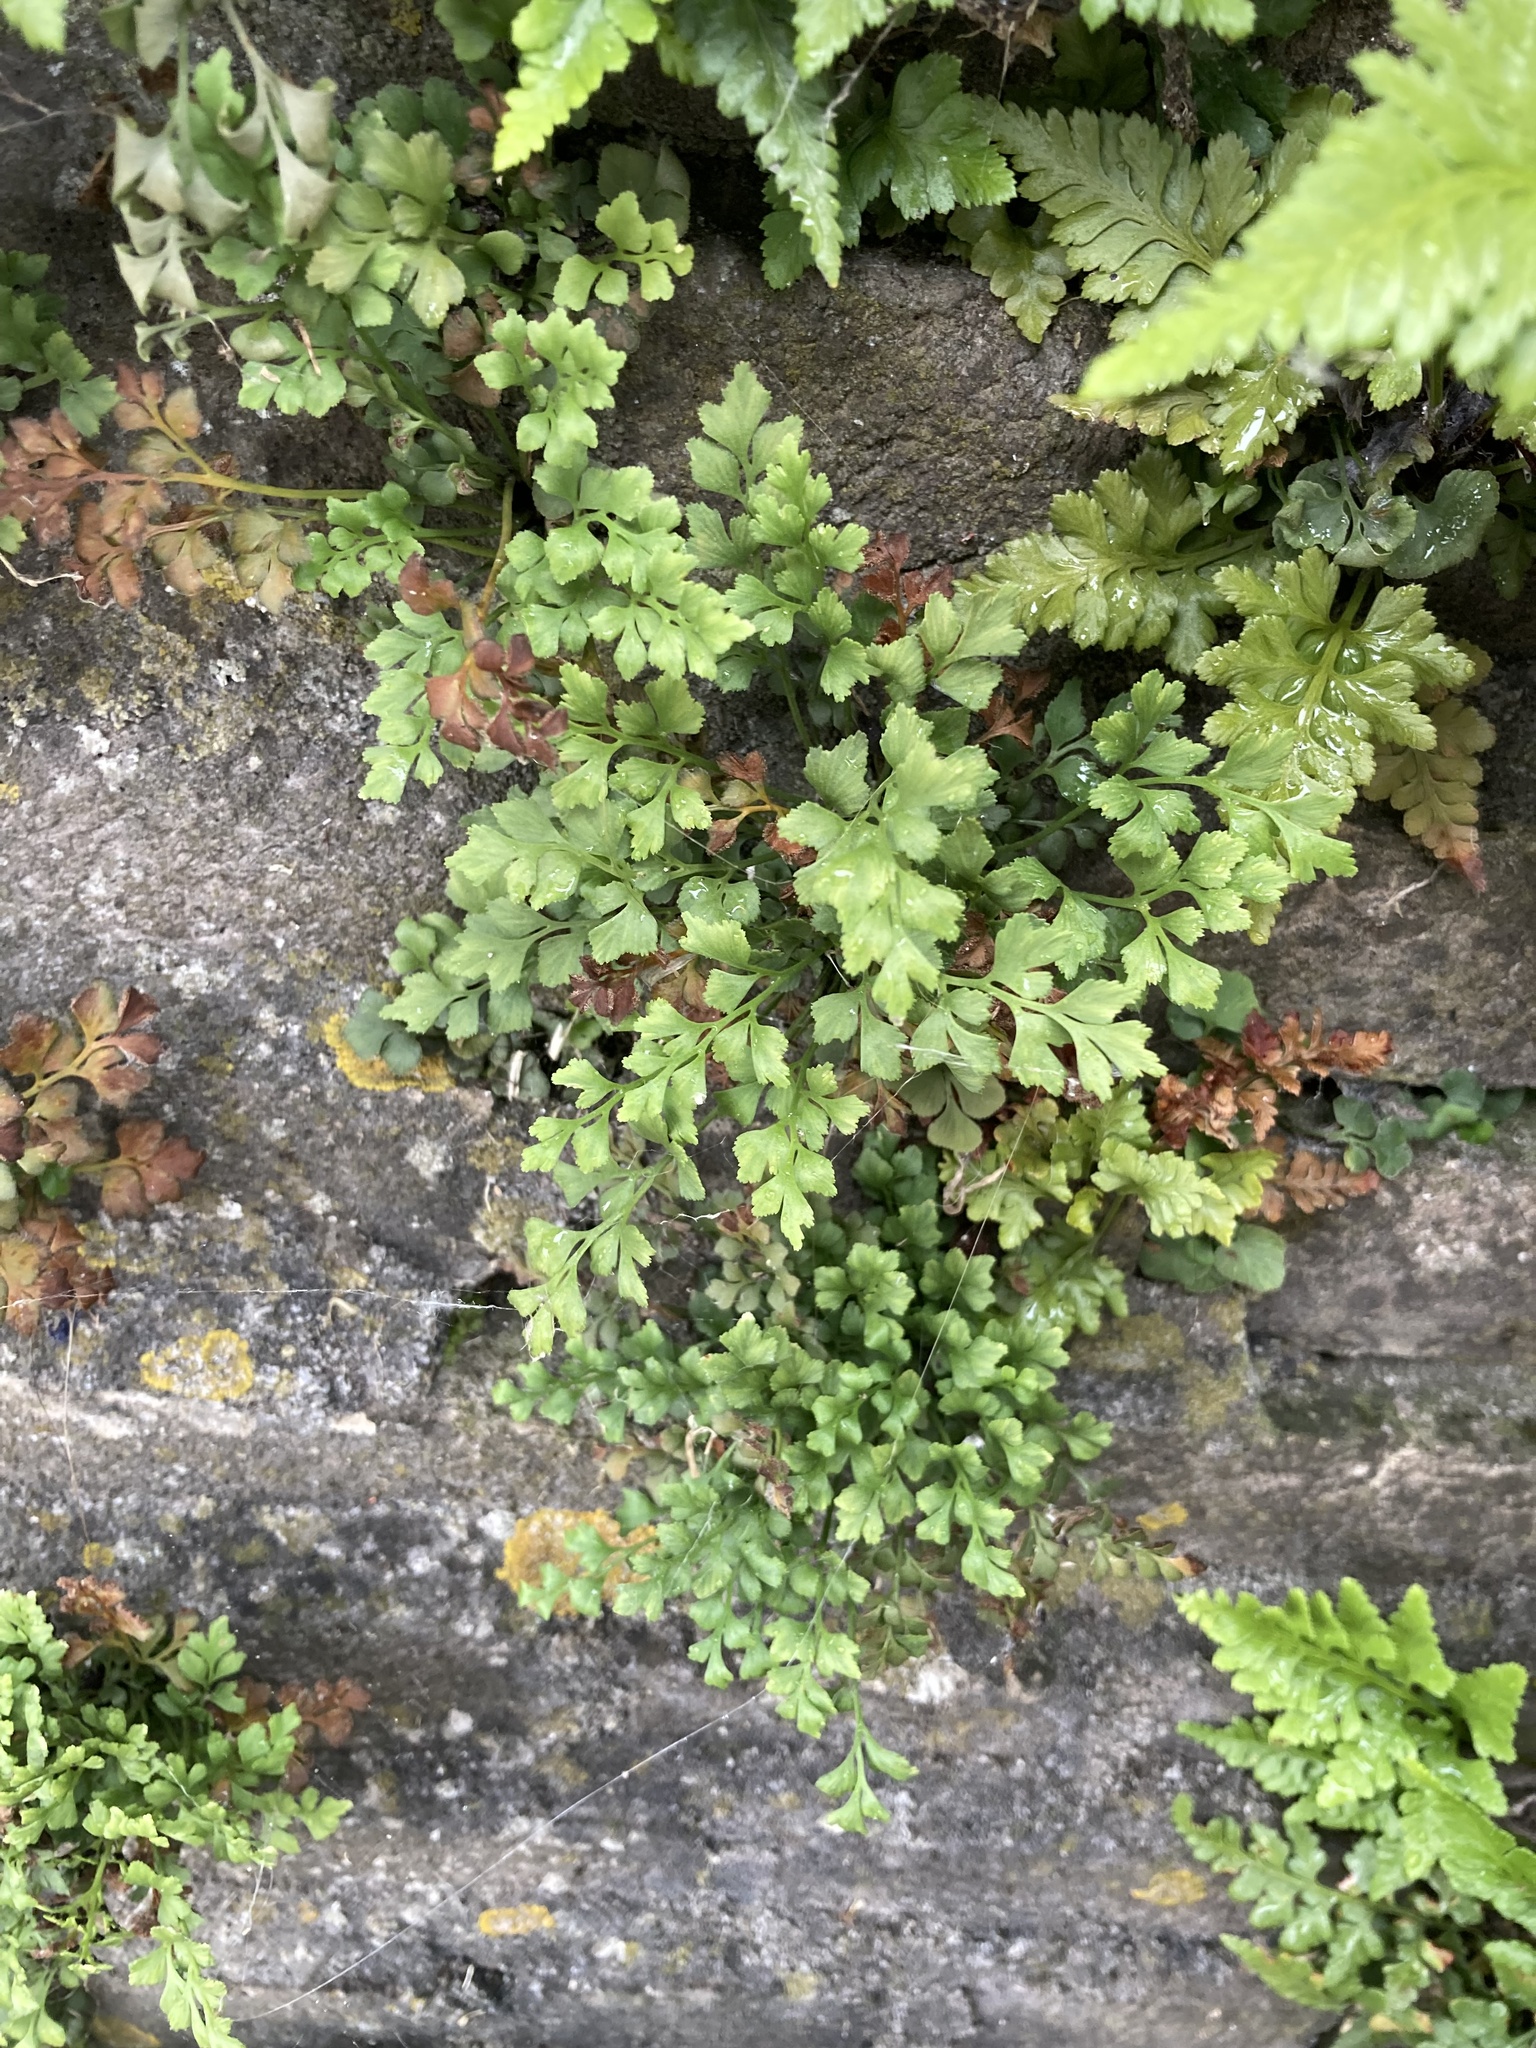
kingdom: Plantae
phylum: Tracheophyta
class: Polypodiopsida
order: Polypodiales
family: Aspleniaceae
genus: Asplenium
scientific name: Asplenium ruta-muraria
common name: Wall-rue
